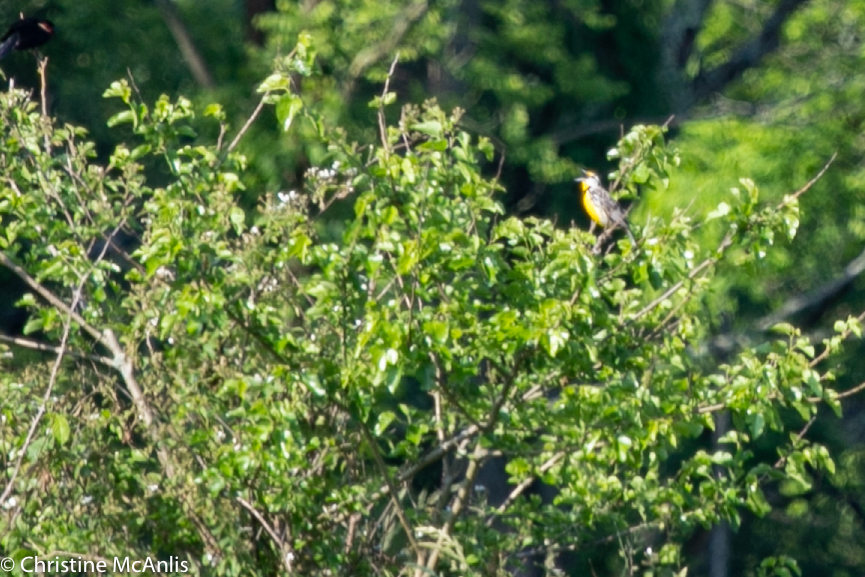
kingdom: Animalia
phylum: Chordata
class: Aves
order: Passeriformes
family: Icteridae
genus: Sturnella
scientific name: Sturnella magna
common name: Eastern meadowlark
